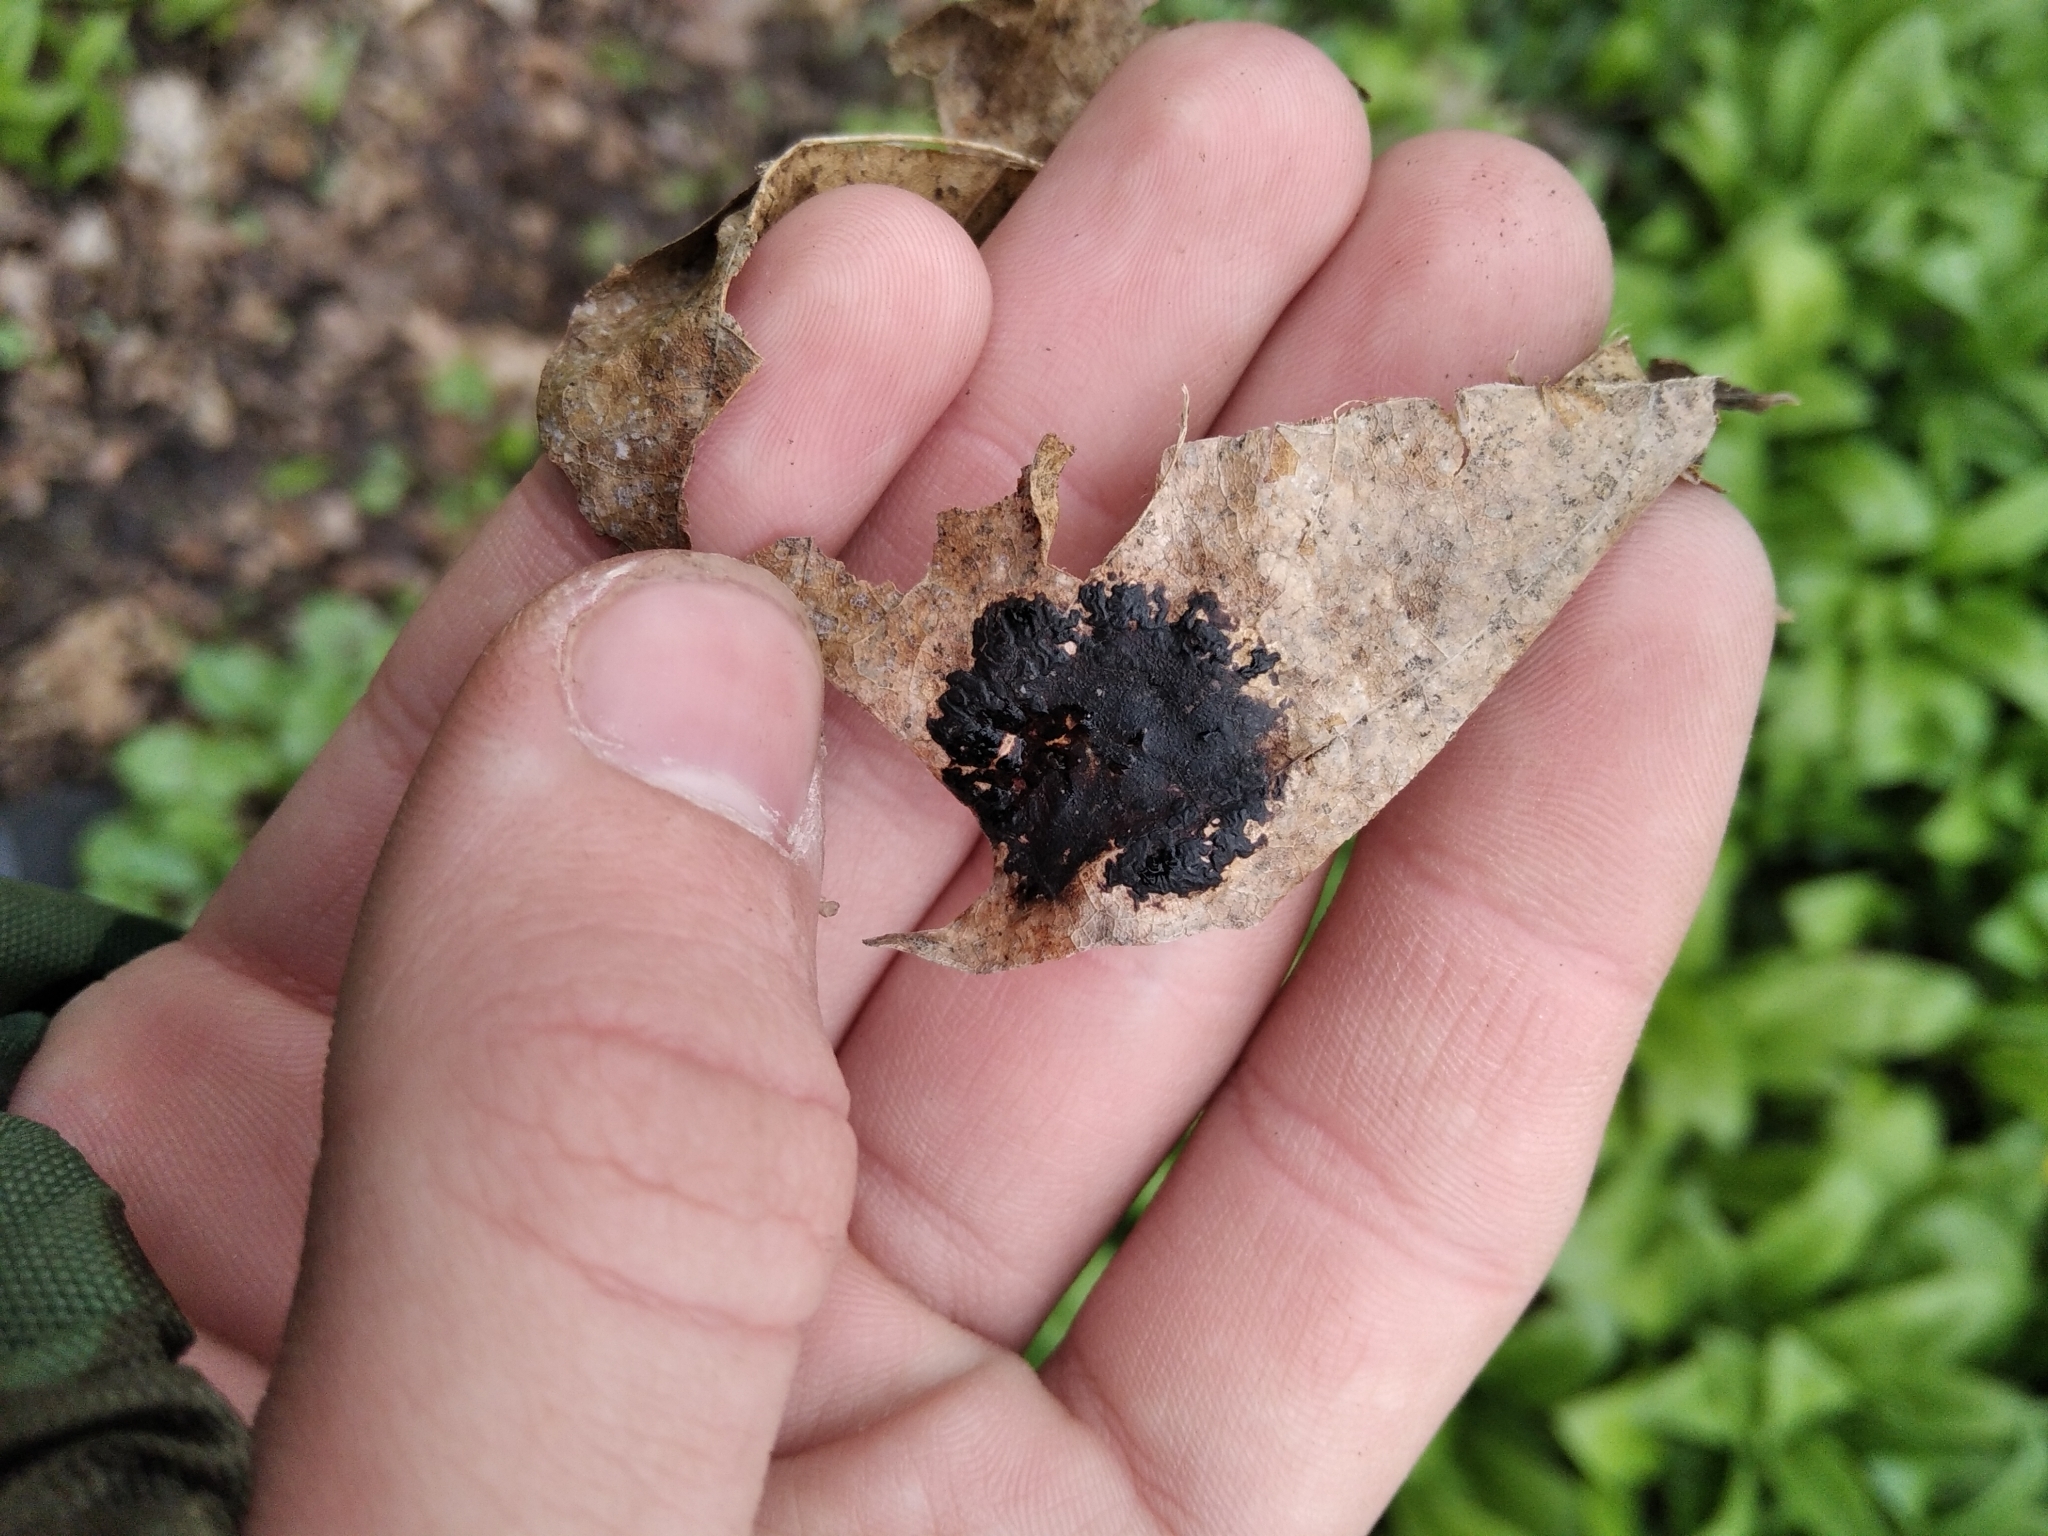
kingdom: Fungi
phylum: Ascomycota
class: Leotiomycetes
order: Rhytismatales
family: Rhytismataceae
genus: Rhytisma
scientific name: Rhytisma acerinum
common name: European tar spot
